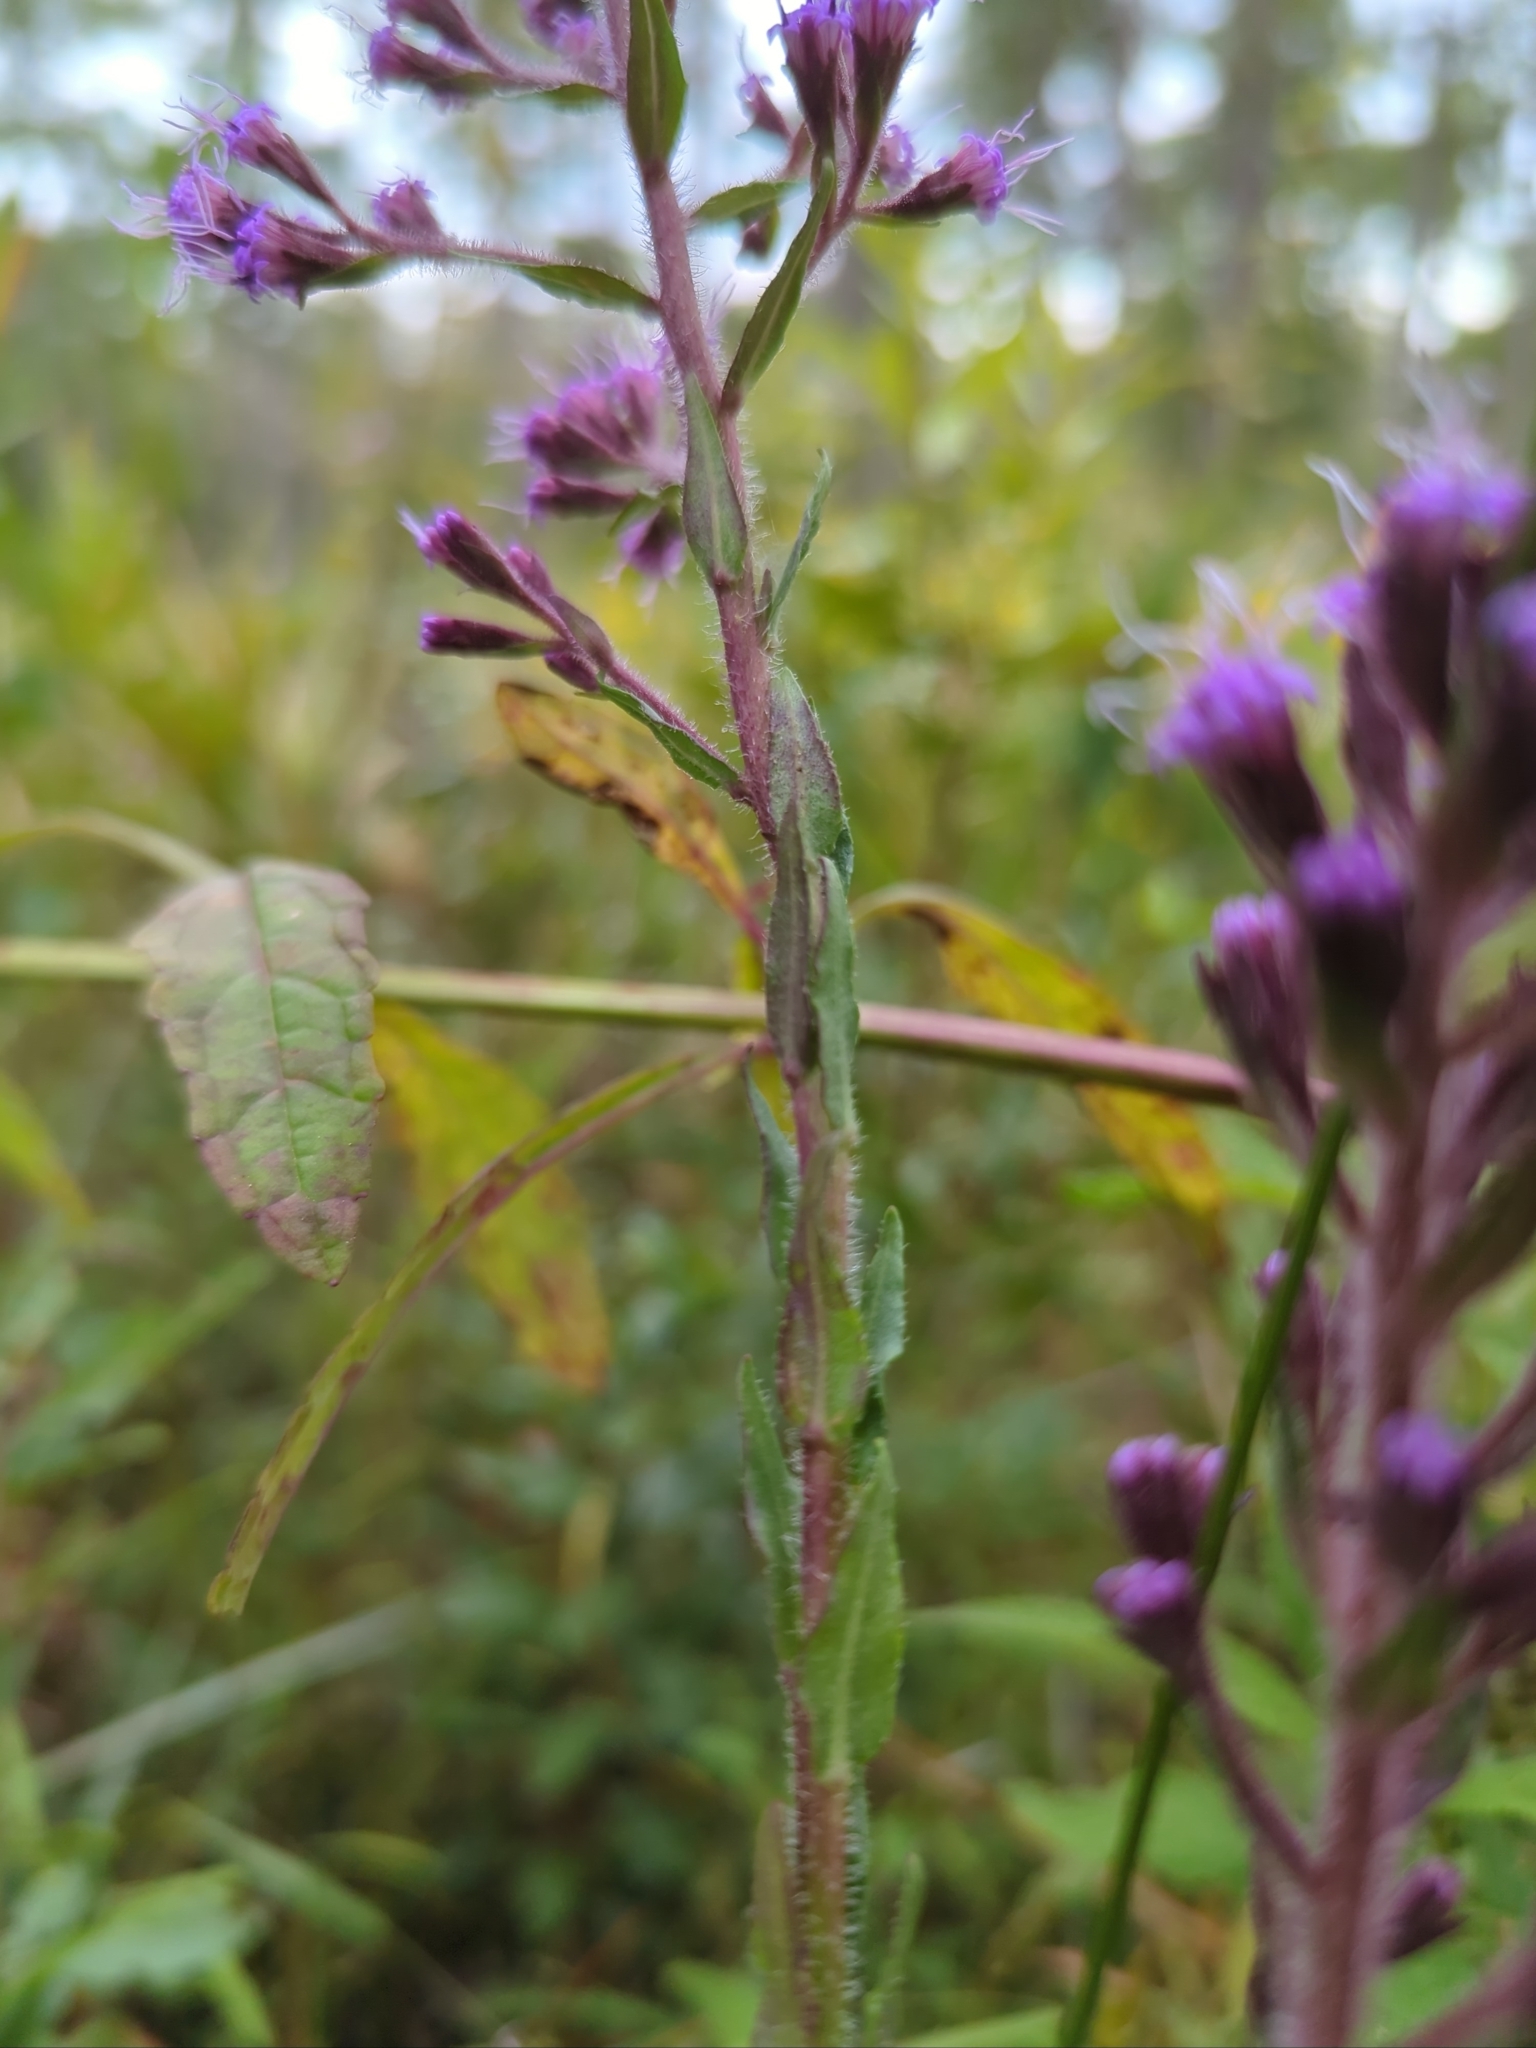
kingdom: Plantae
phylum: Tracheophyta
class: Magnoliopsida
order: Asterales
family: Asteraceae
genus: Carphephorus
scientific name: Carphephorus paniculatus
